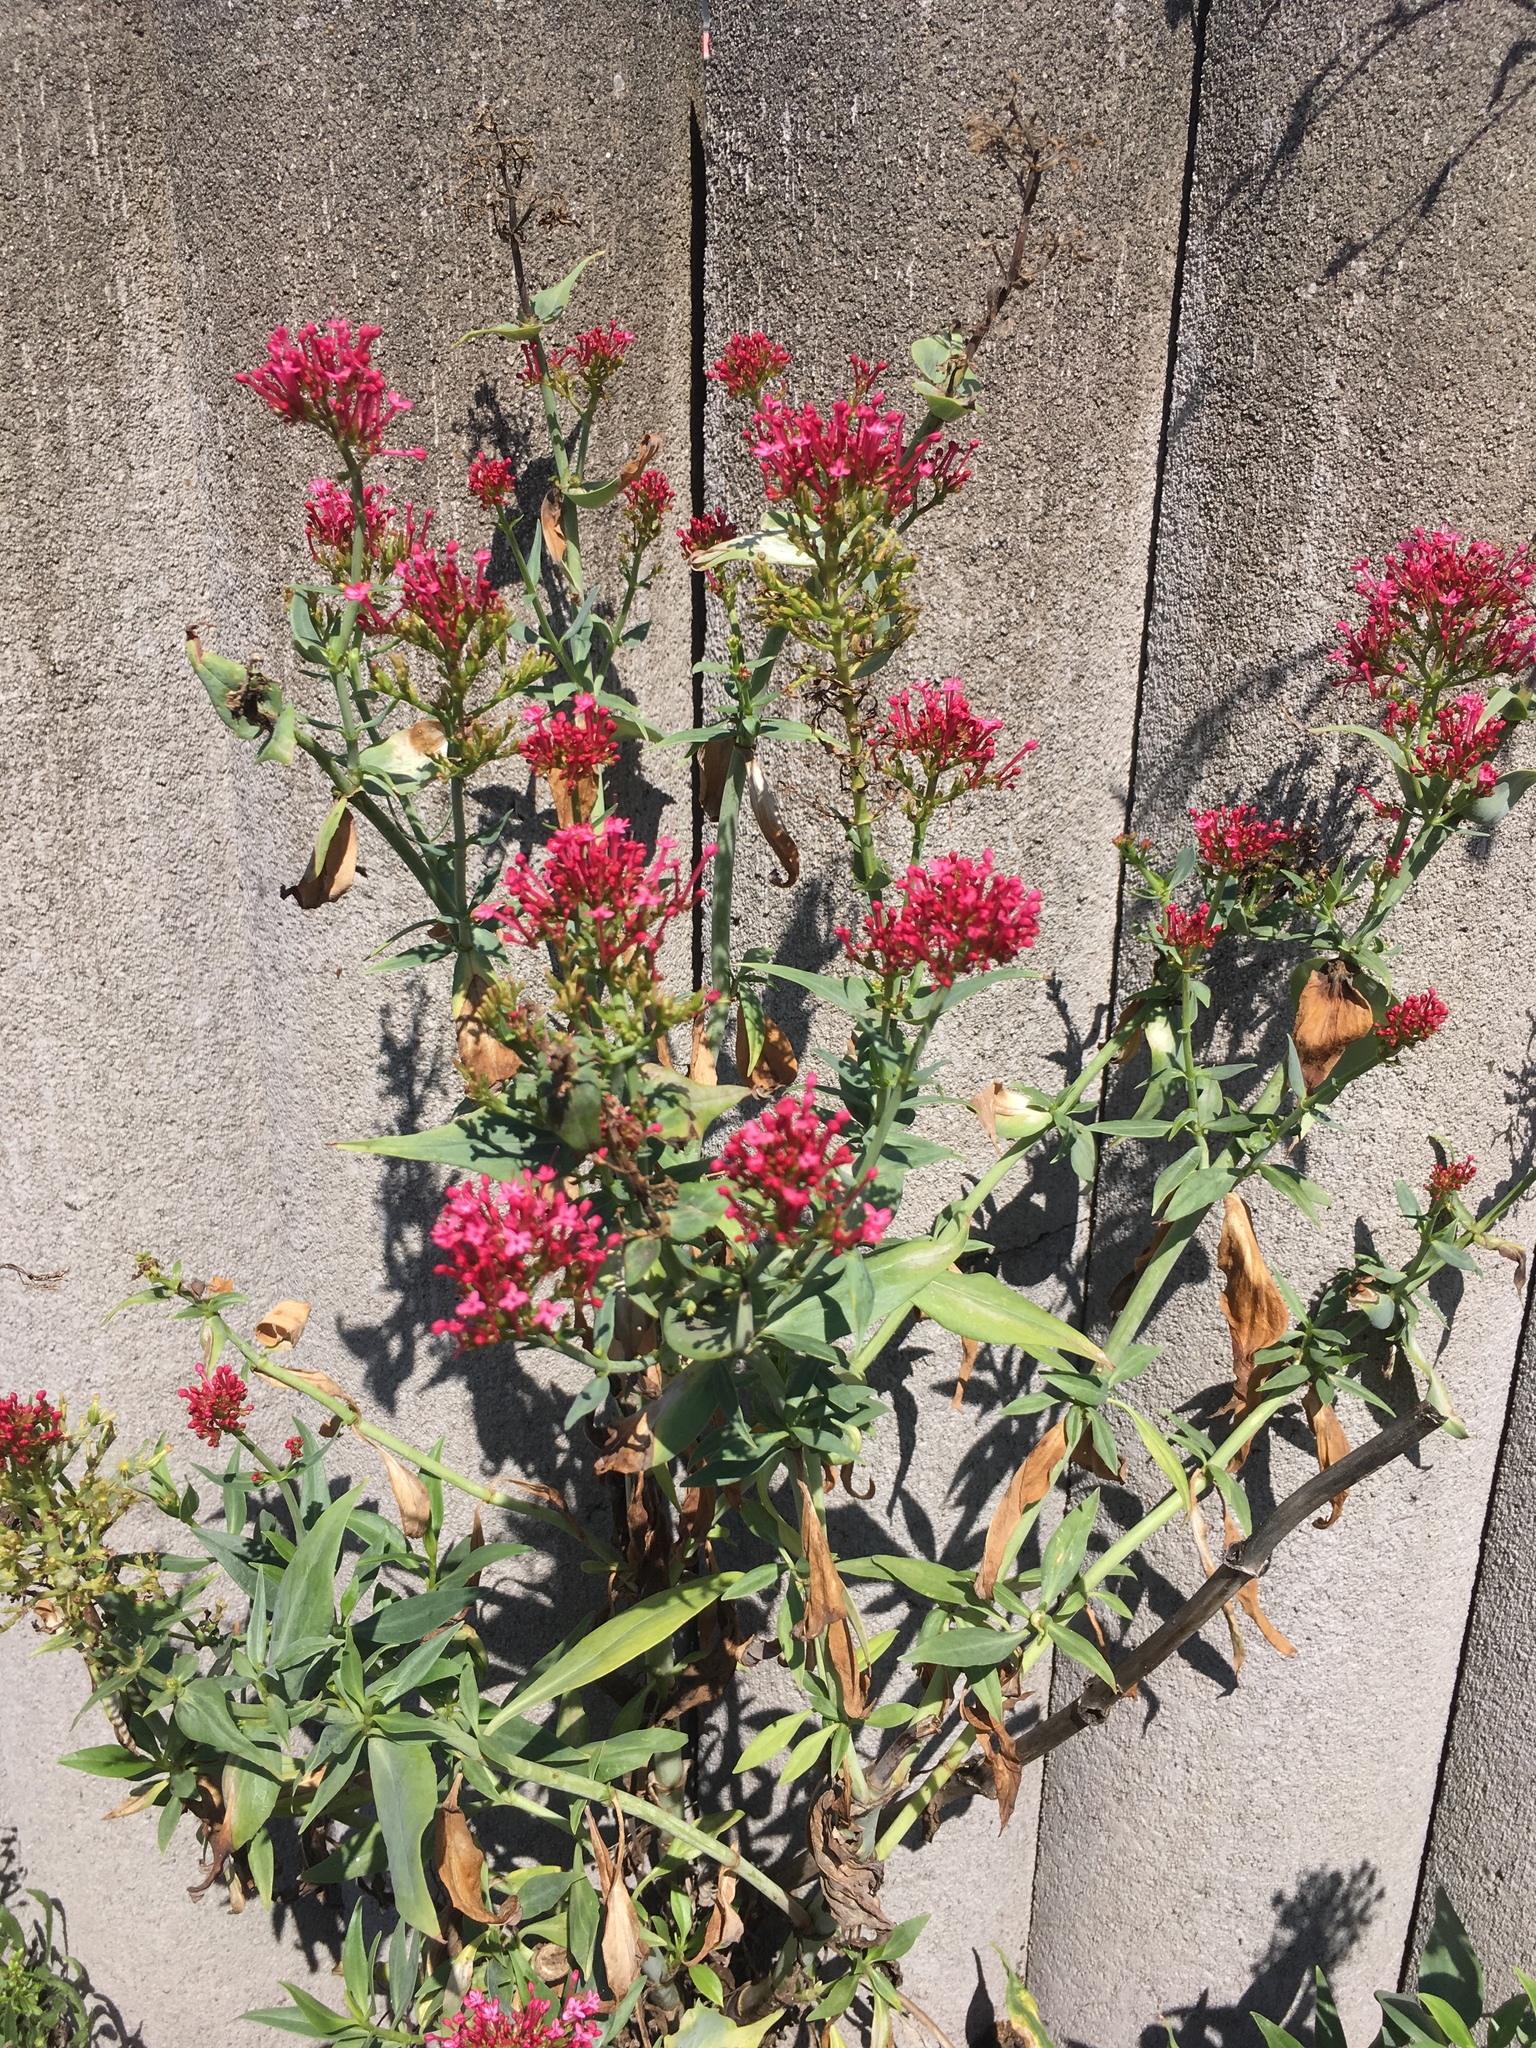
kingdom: Plantae
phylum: Tracheophyta
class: Magnoliopsida
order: Dipsacales
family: Caprifoliaceae
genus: Centranthus
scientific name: Centranthus ruber
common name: Red valerian
